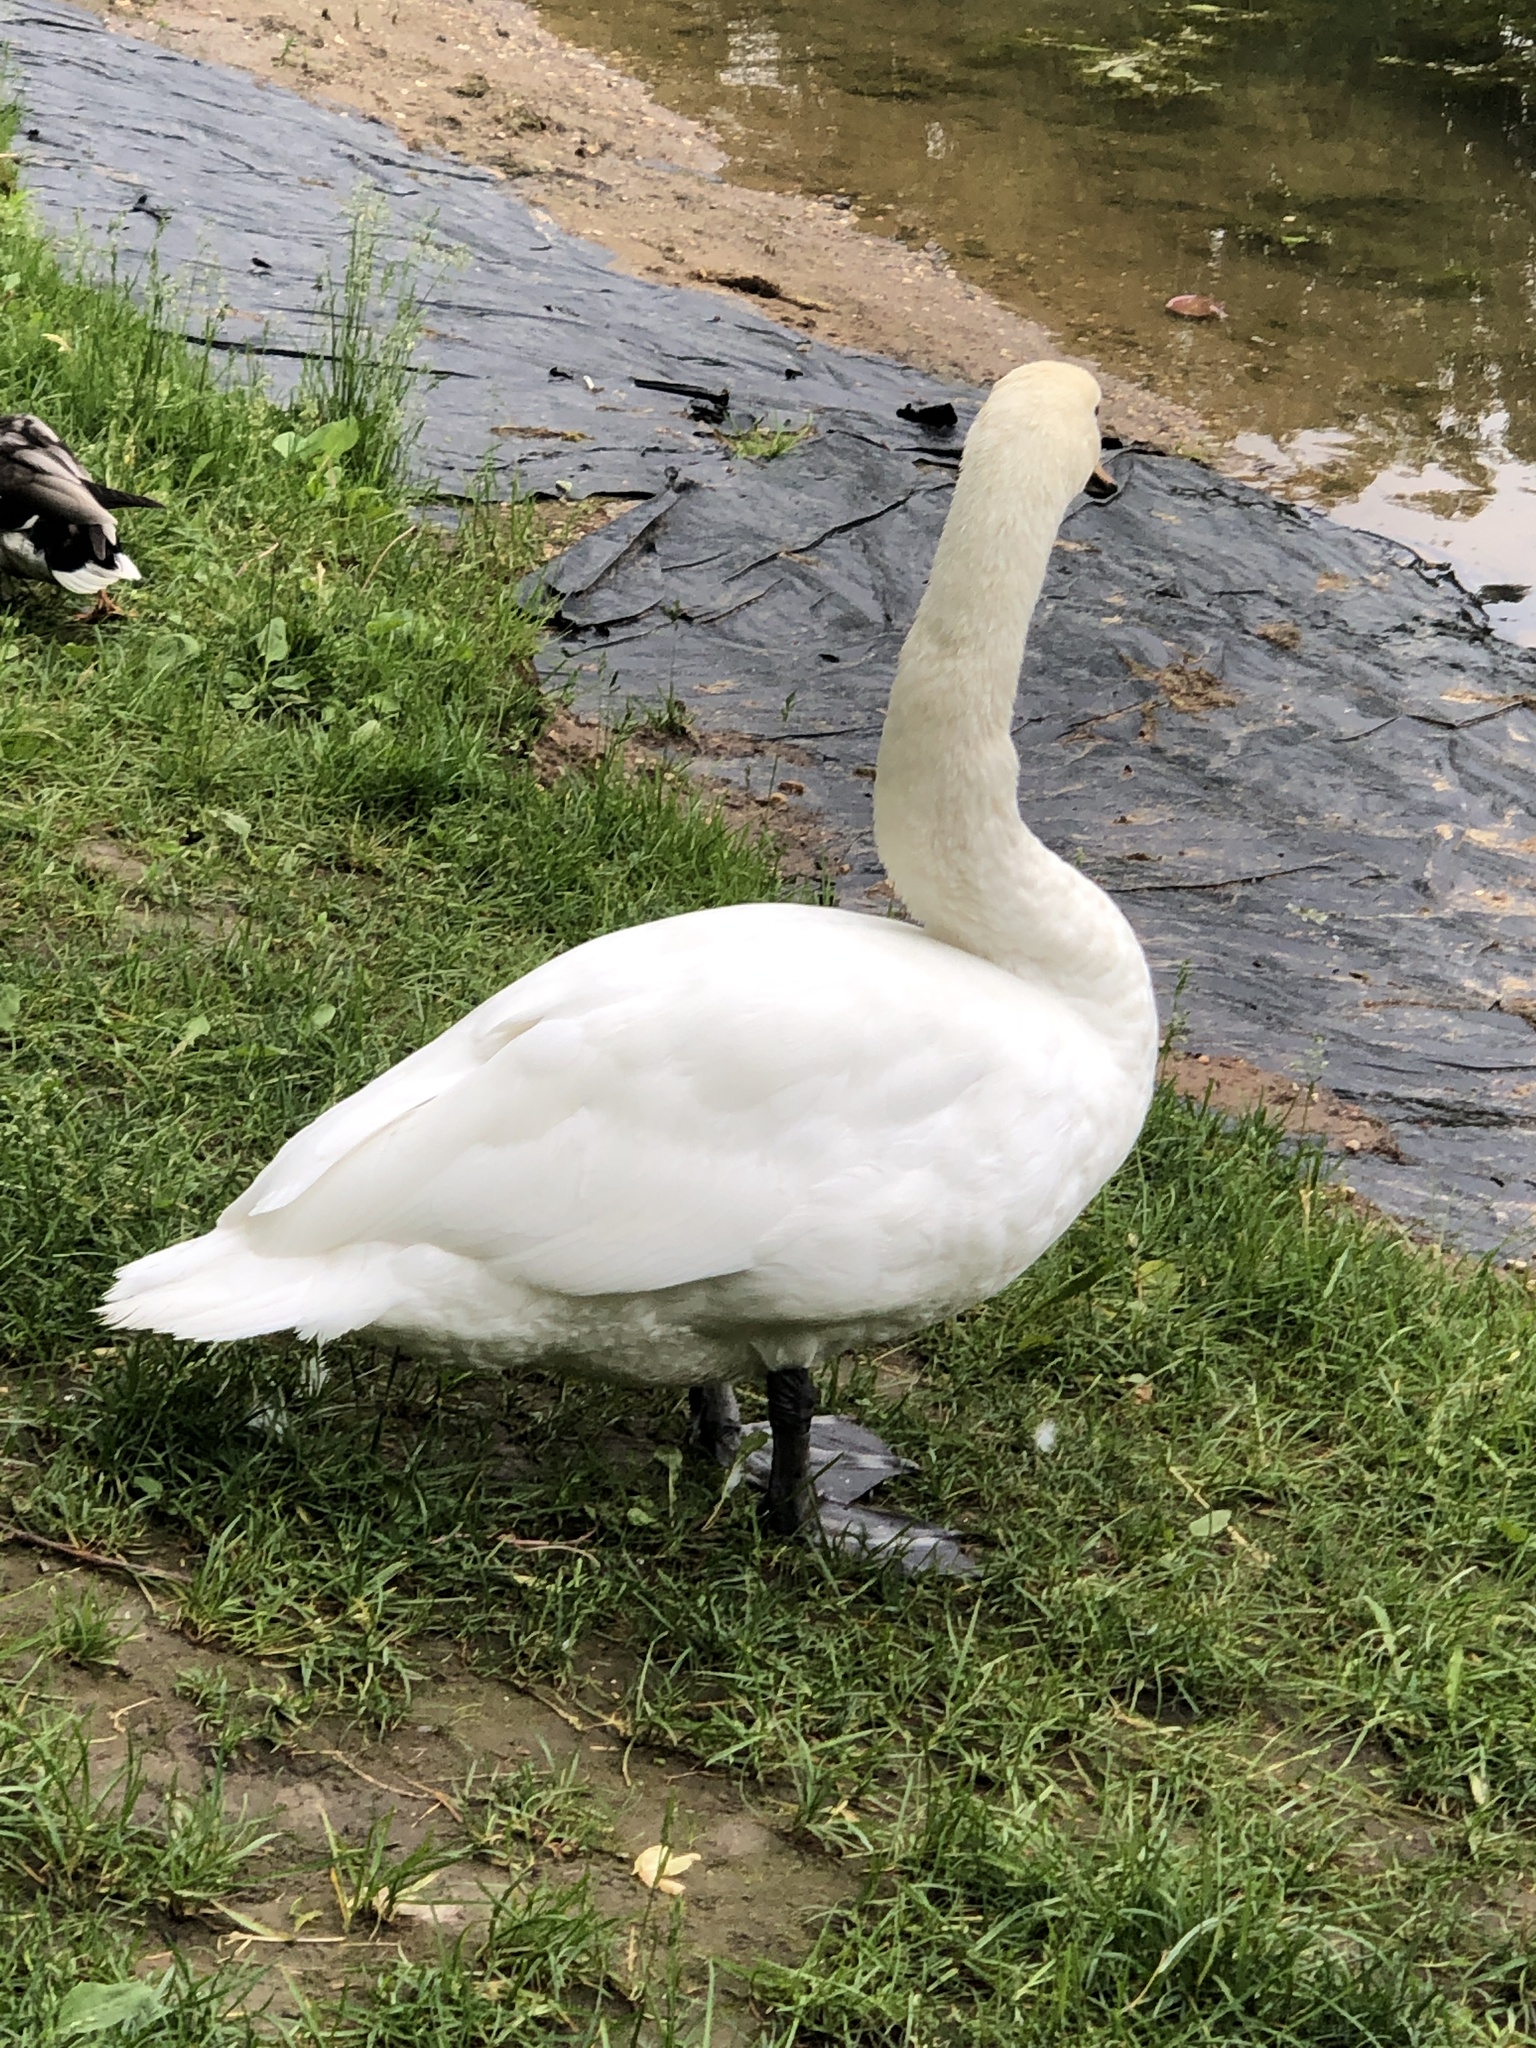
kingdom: Animalia
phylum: Chordata
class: Aves
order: Anseriformes
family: Anatidae
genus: Cygnus
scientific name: Cygnus olor
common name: Mute swan
